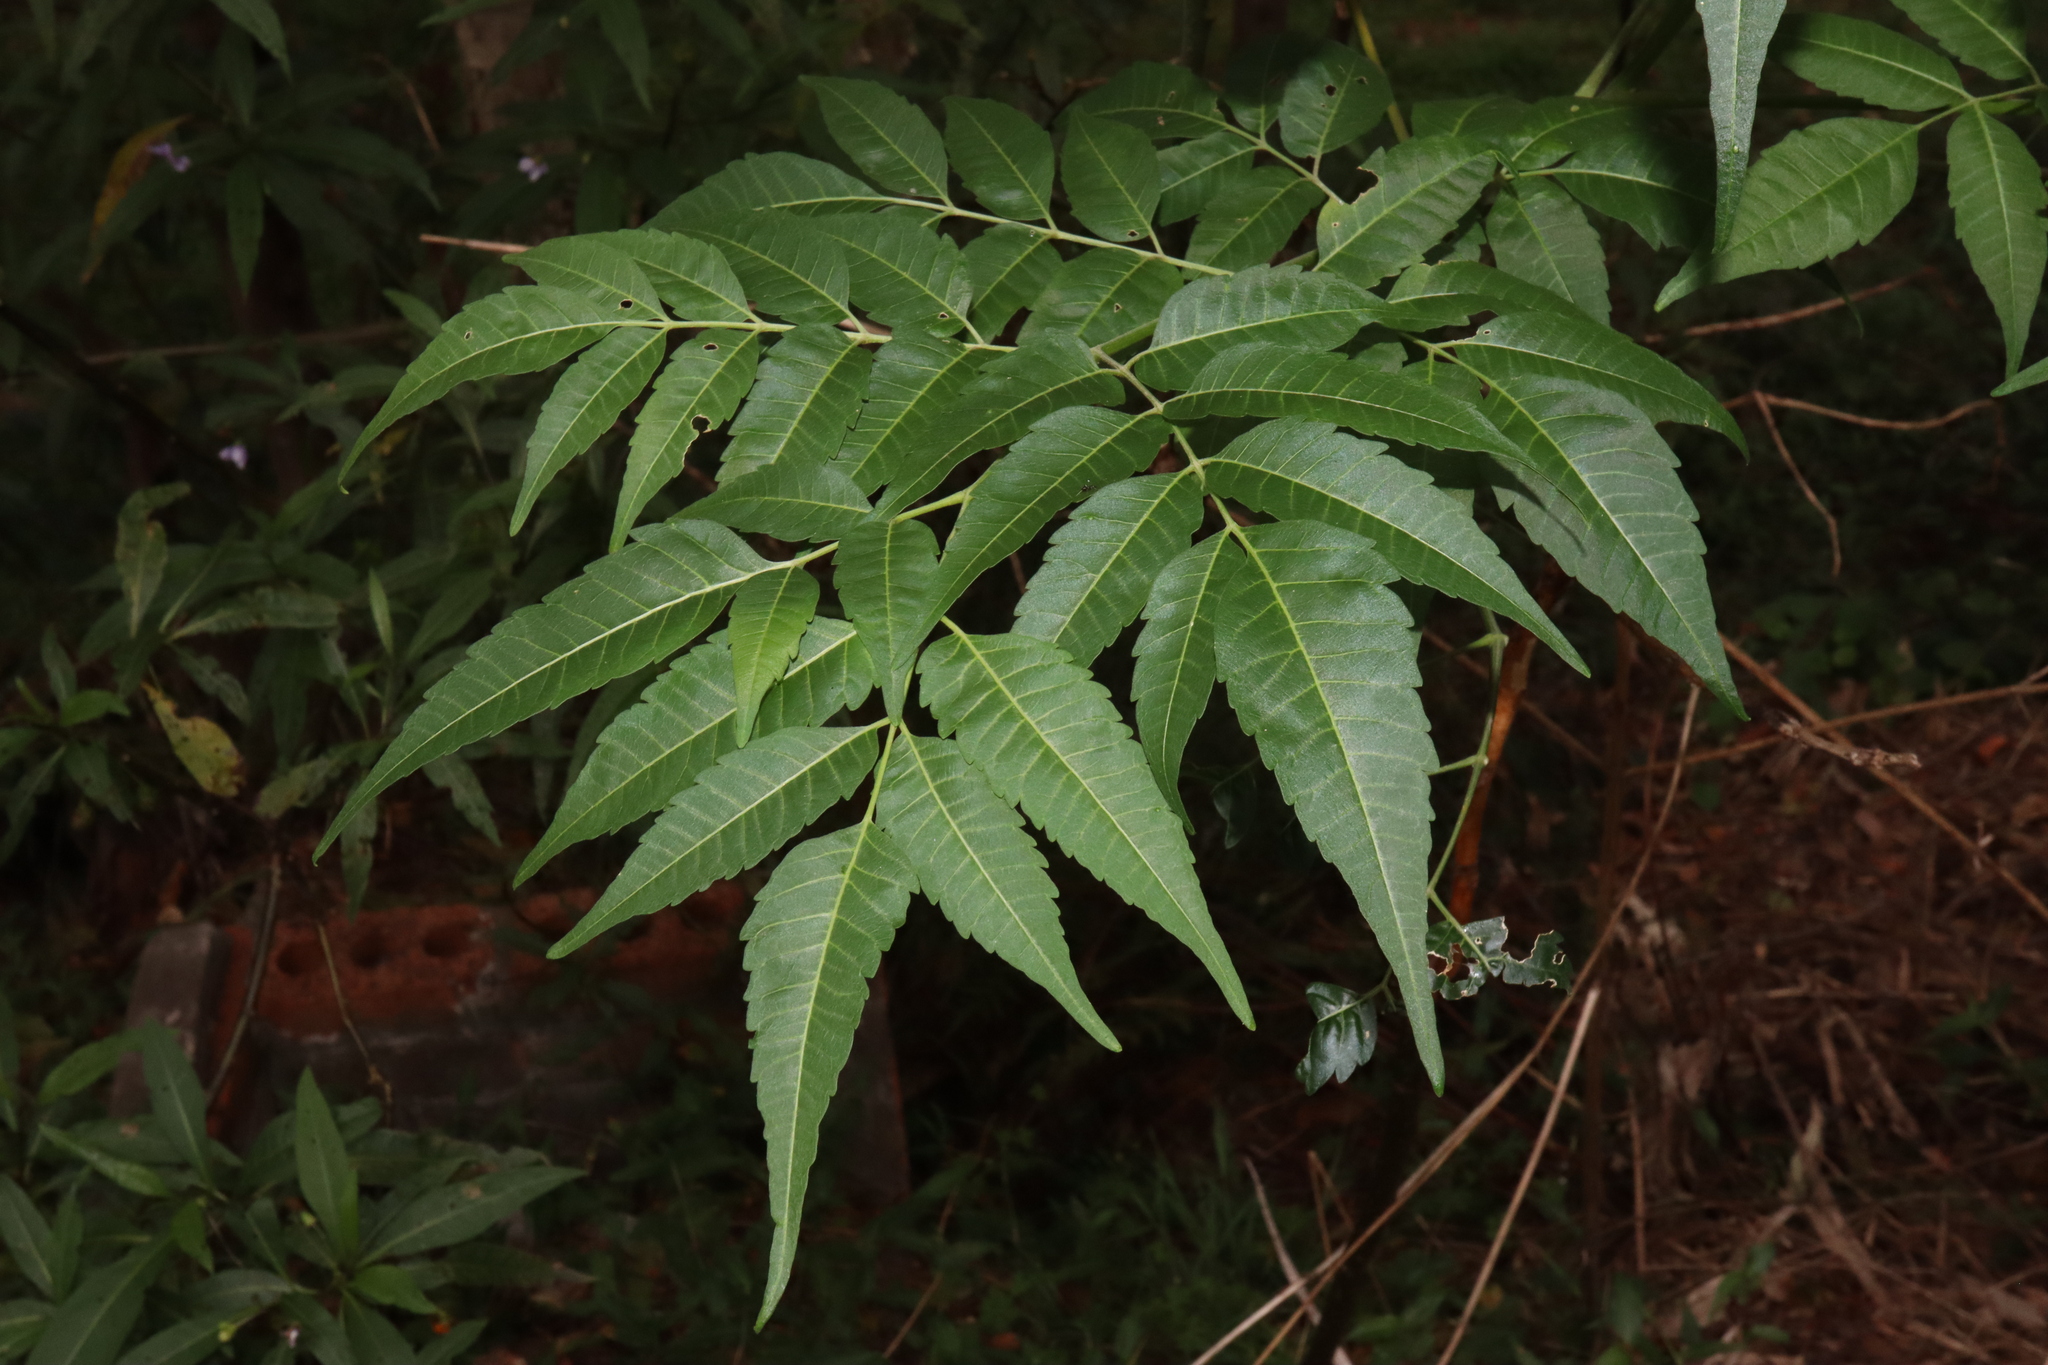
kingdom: Plantae
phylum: Tracheophyta
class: Magnoliopsida
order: Sapindales
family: Meliaceae
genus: Melia
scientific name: Melia azedarach
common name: Chinaberrytree
